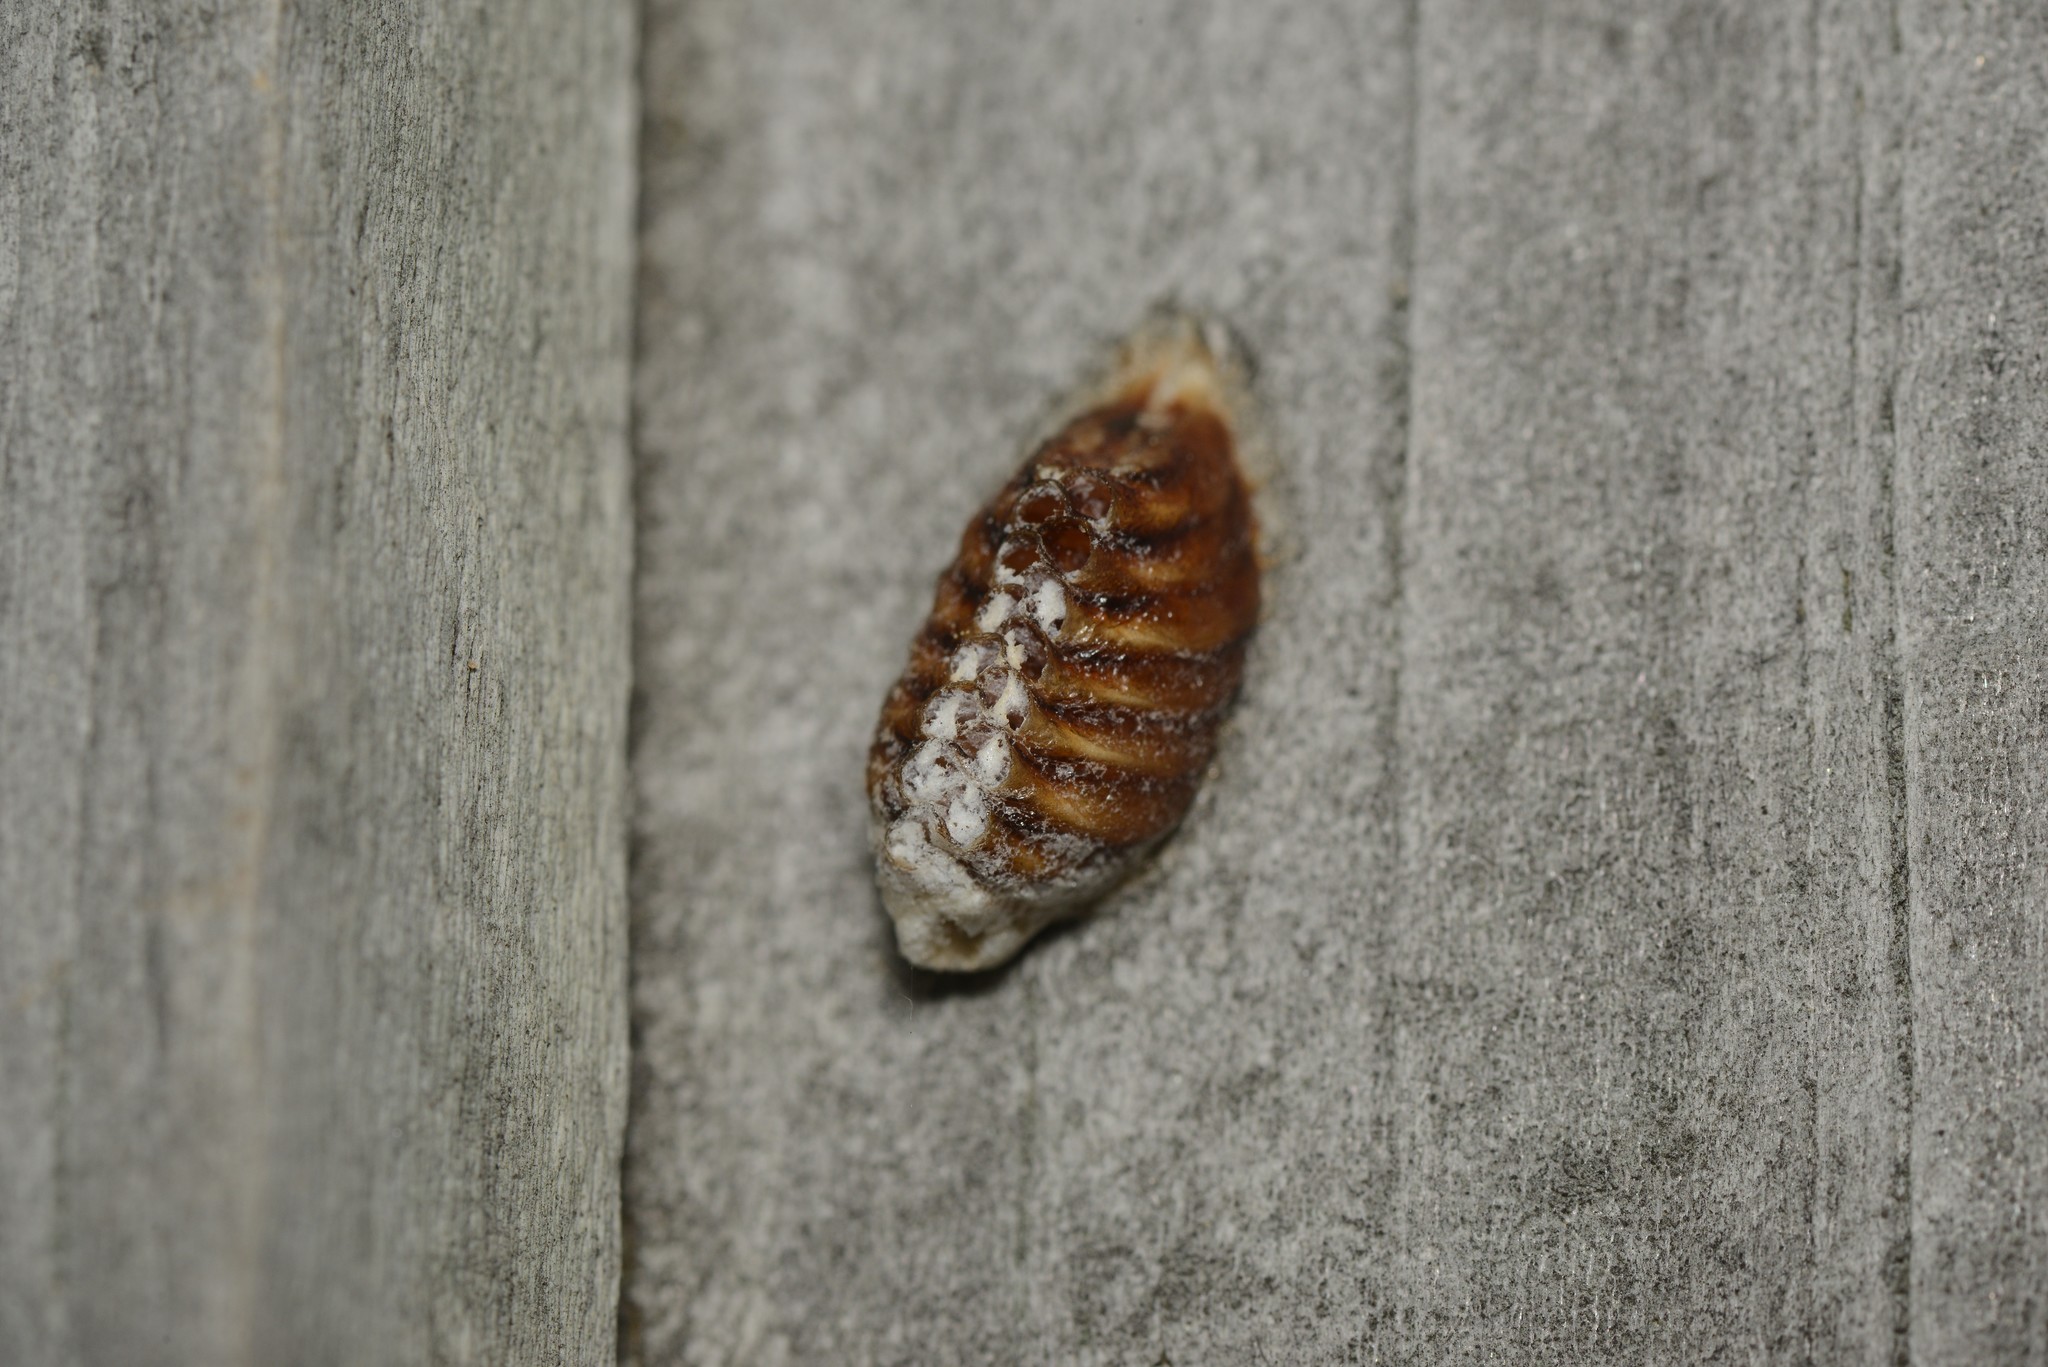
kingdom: Animalia
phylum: Arthropoda
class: Insecta
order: Mantodea
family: Mantidae
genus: Orthodera
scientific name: Orthodera novaezealandiae
